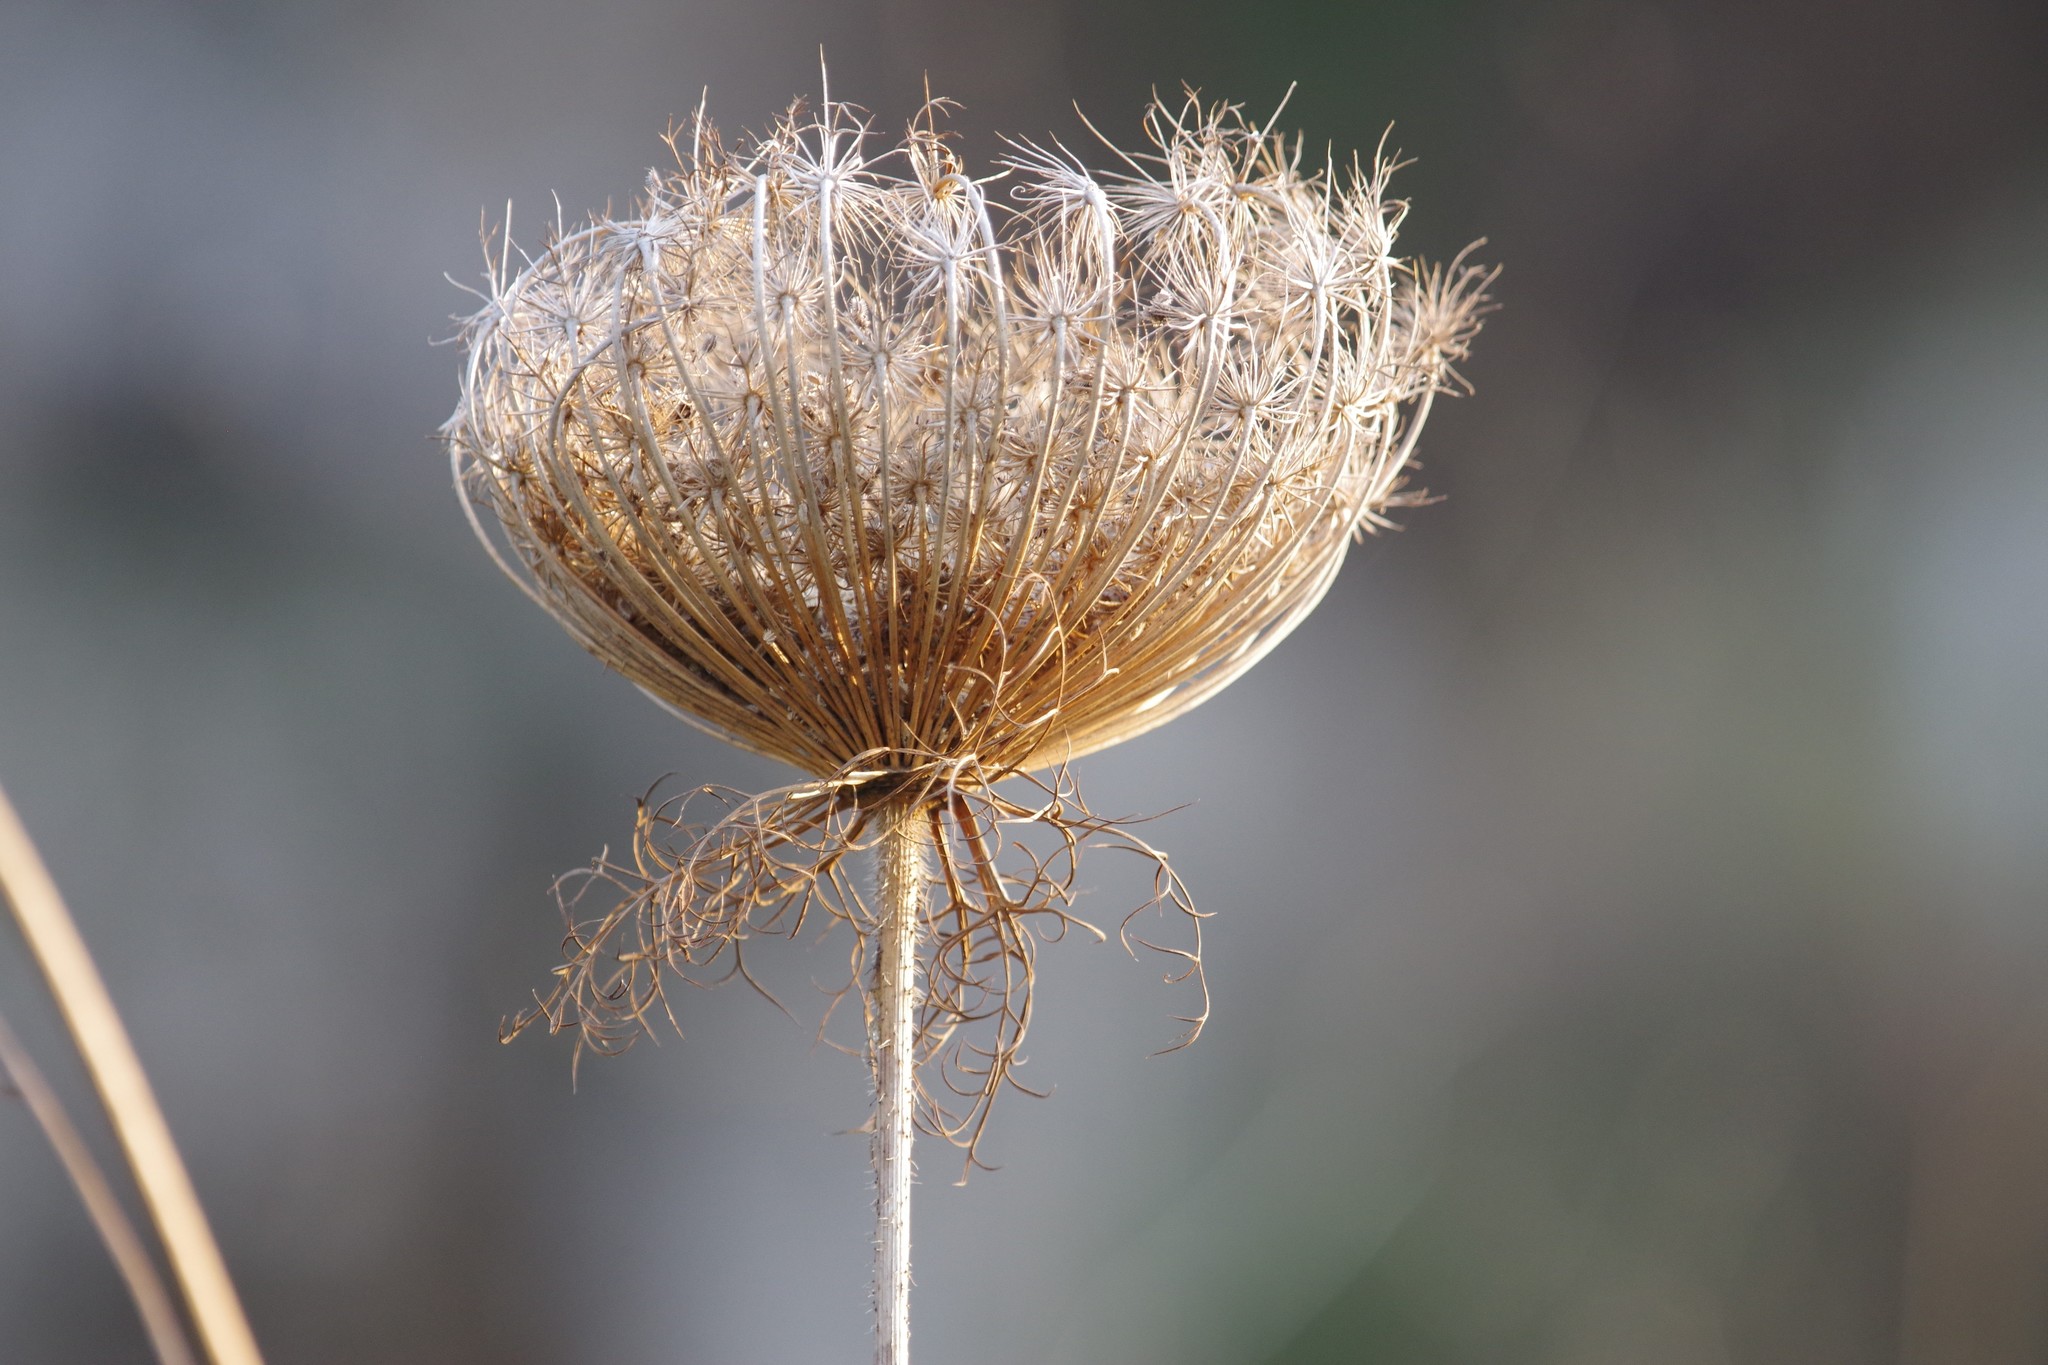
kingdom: Plantae
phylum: Tracheophyta
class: Magnoliopsida
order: Apiales
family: Apiaceae
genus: Daucus
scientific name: Daucus carota
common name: Wild carrot
